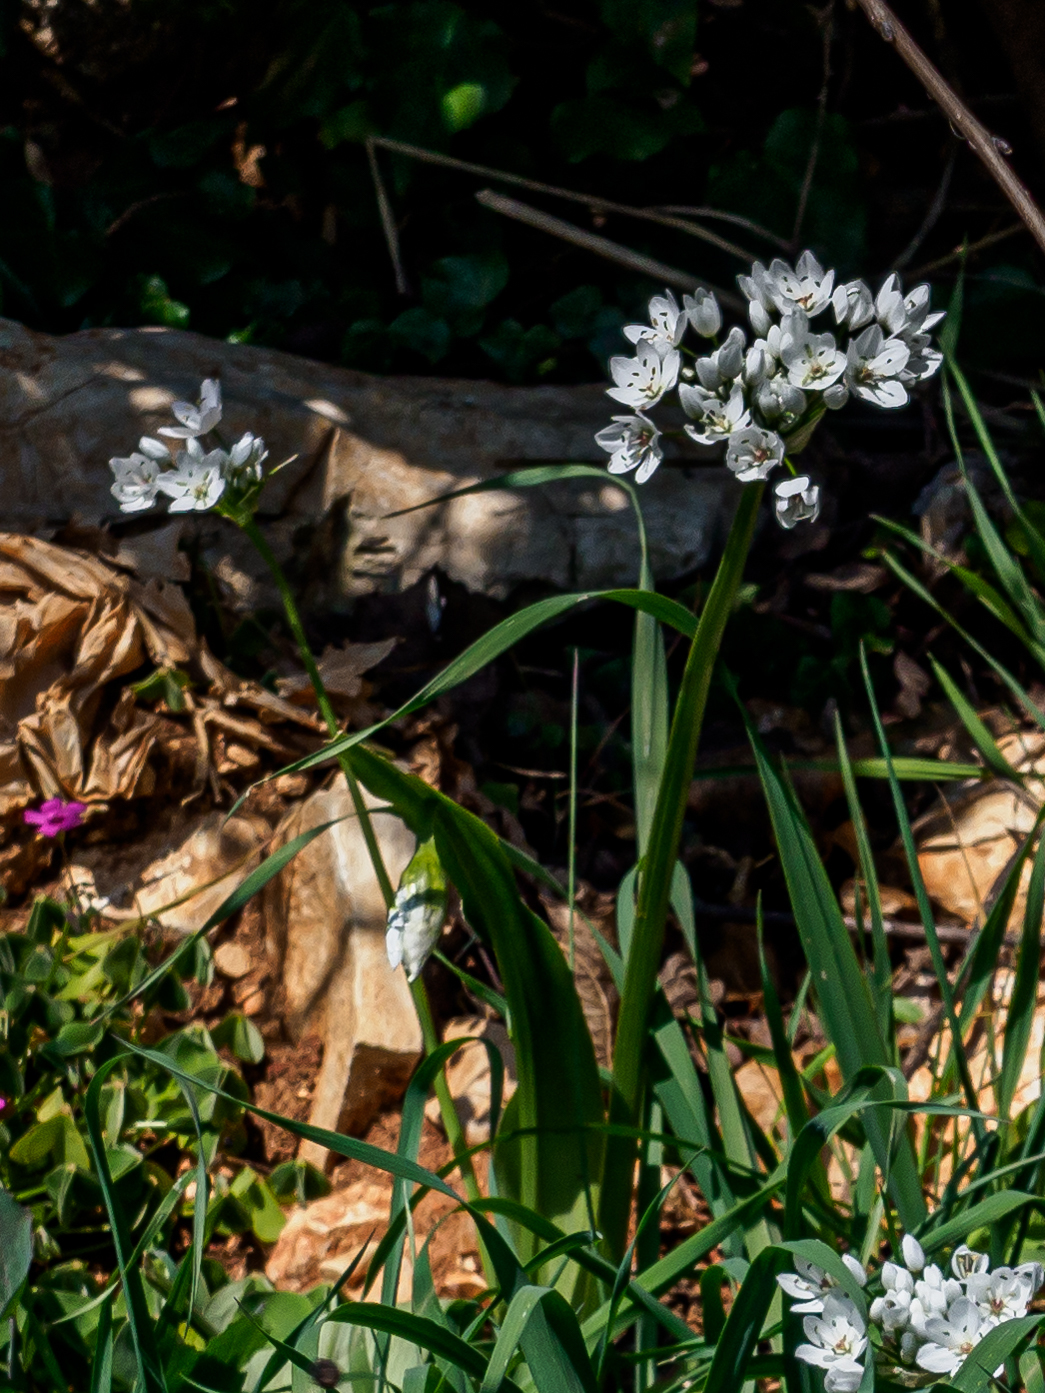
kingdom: Plantae
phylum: Tracheophyta
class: Liliopsida
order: Asparagales
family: Amaryllidaceae
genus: Allium
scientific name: Allium neapolitanum
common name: Neapolitan garlic
